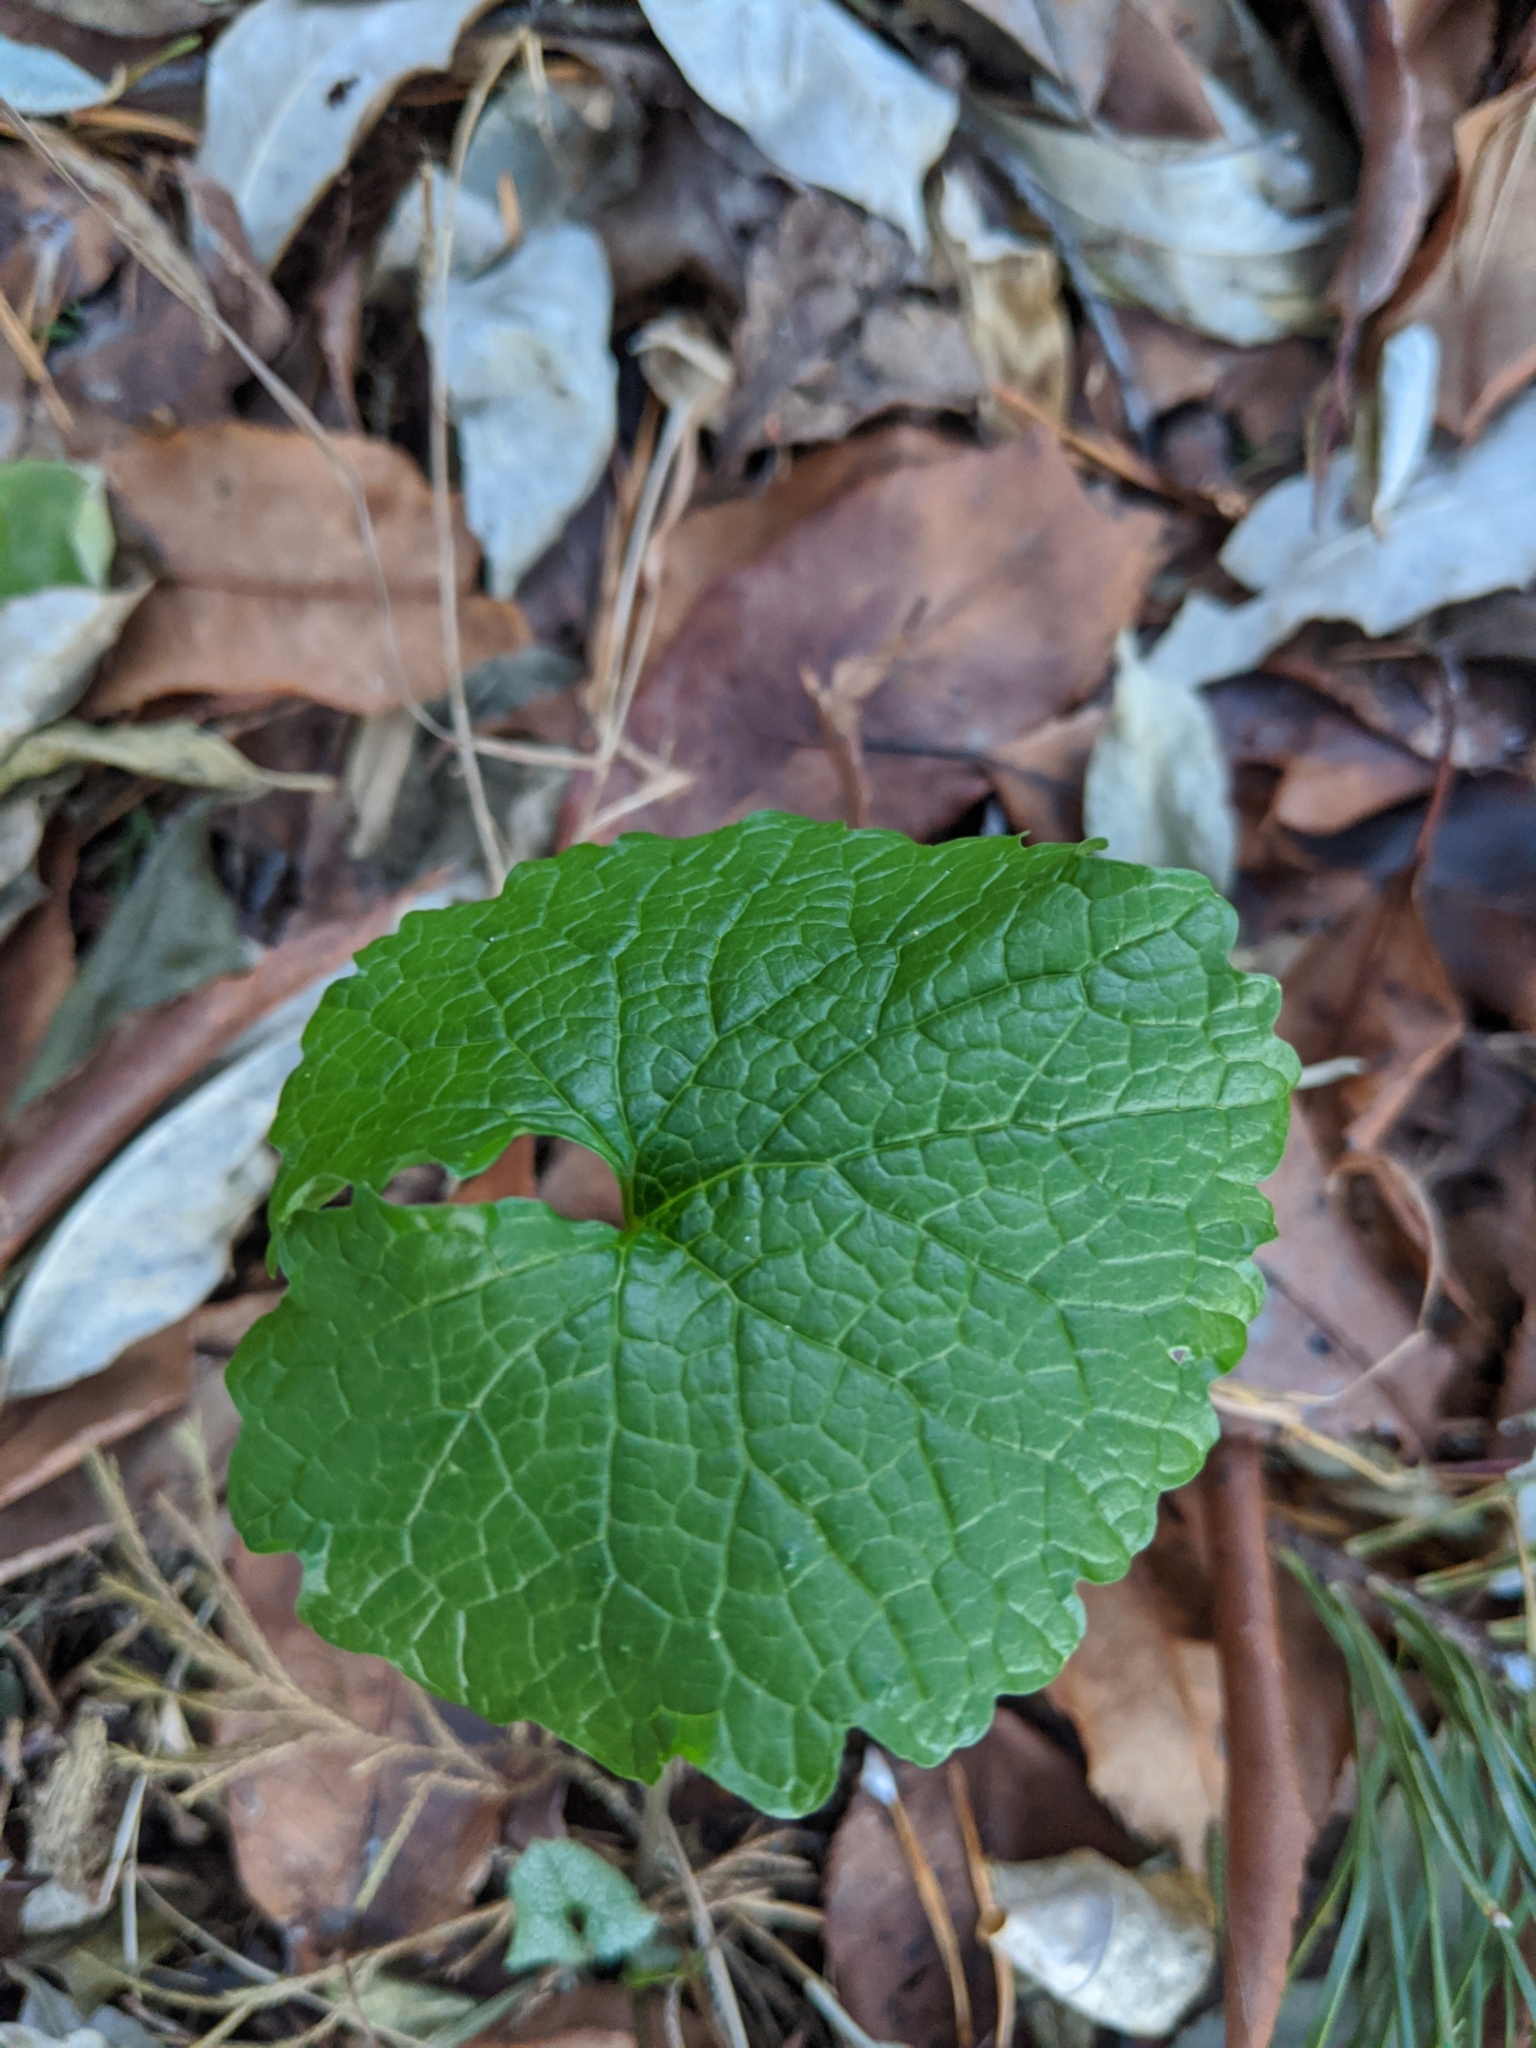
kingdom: Plantae
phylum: Tracheophyta
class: Magnoliopsida
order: Brassicales
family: Brassicaceae
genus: Alliaria
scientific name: Alliaria petiolata
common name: Garlic mustard
